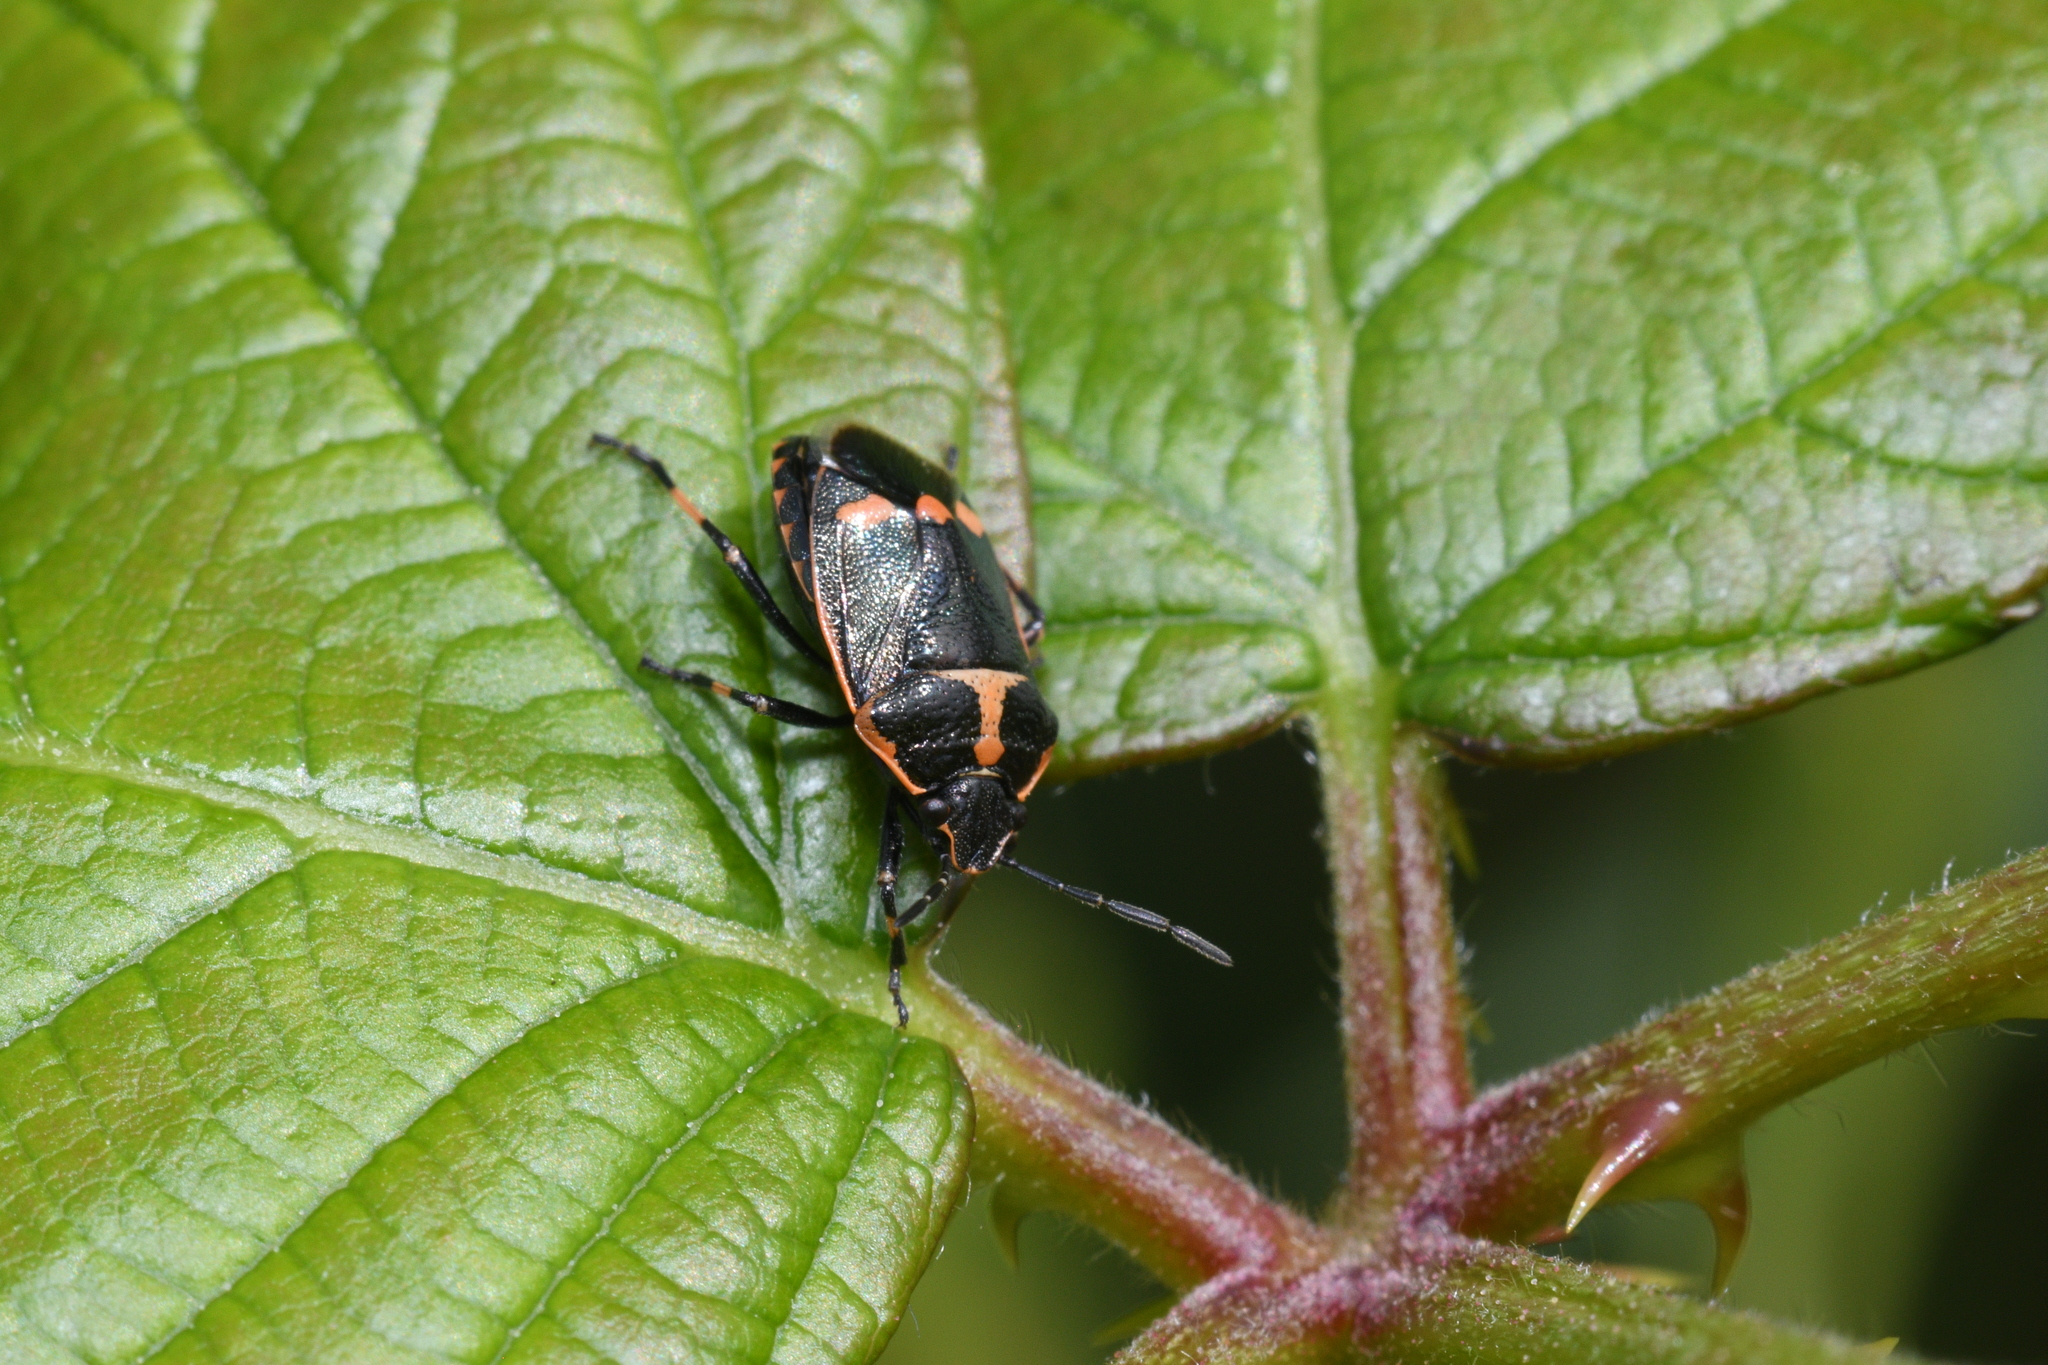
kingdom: Animalia
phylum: Arthropoda
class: Insecta
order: Hemiptera
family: Pentatomidae
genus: Eurydema
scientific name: Eurydema oleracea
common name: Cabbage bug
